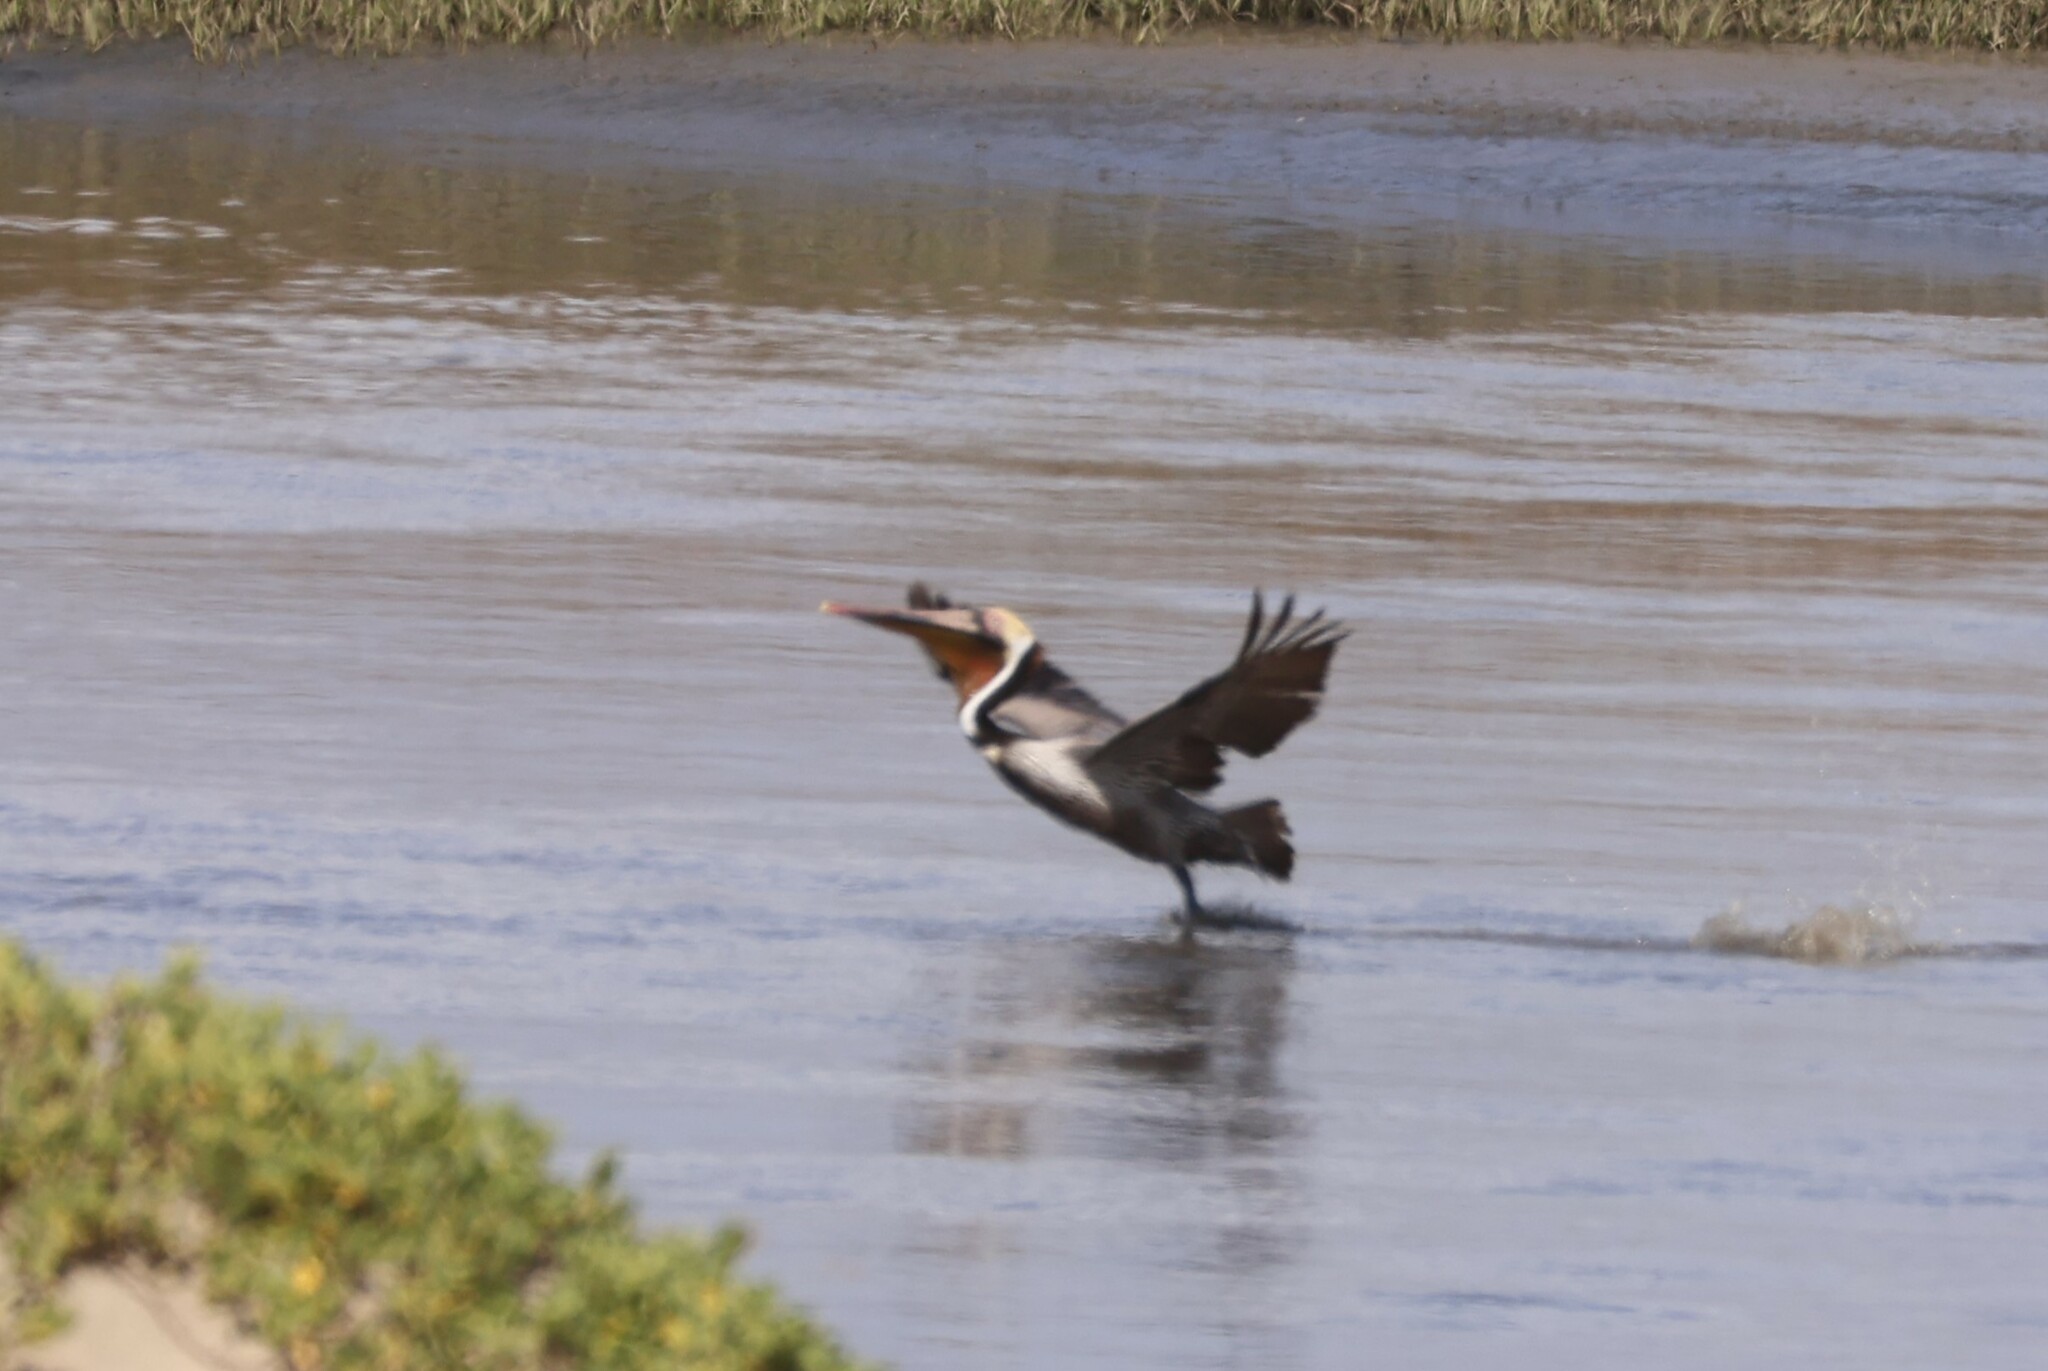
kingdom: Animalia
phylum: Chordata
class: Aves
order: Pelecaniformes
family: Pelecanidae
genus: Pelecanus
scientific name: Pelecanus occidentalis
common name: Brown pelican
